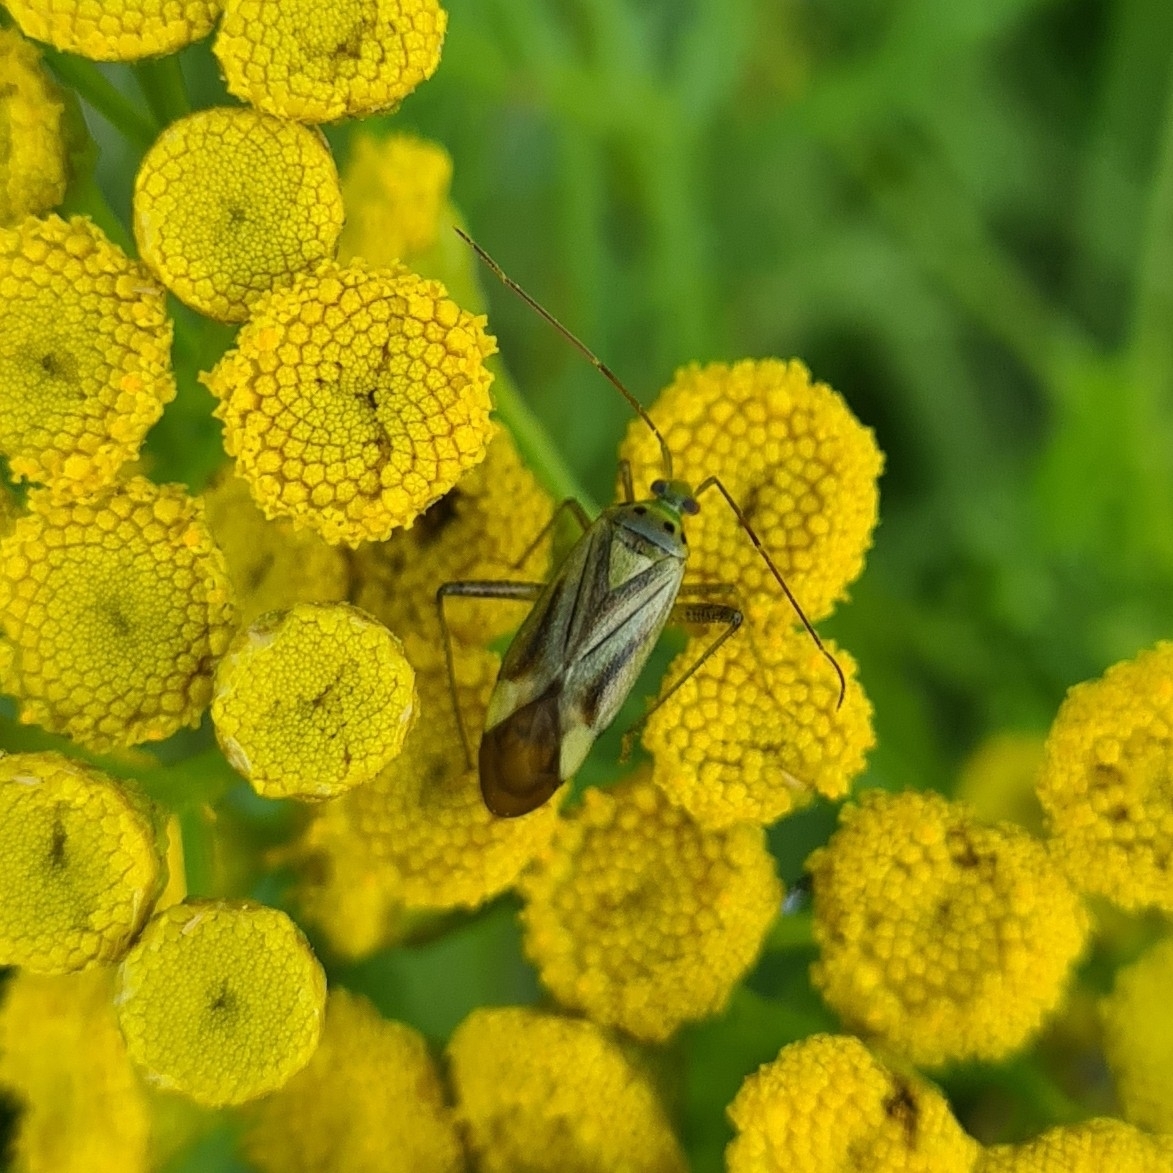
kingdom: Animalia
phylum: Arthropoda
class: Insecta
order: Hemiptera
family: Miridae
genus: Adelphocoris
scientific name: Adelphocoris quadripunctatus
